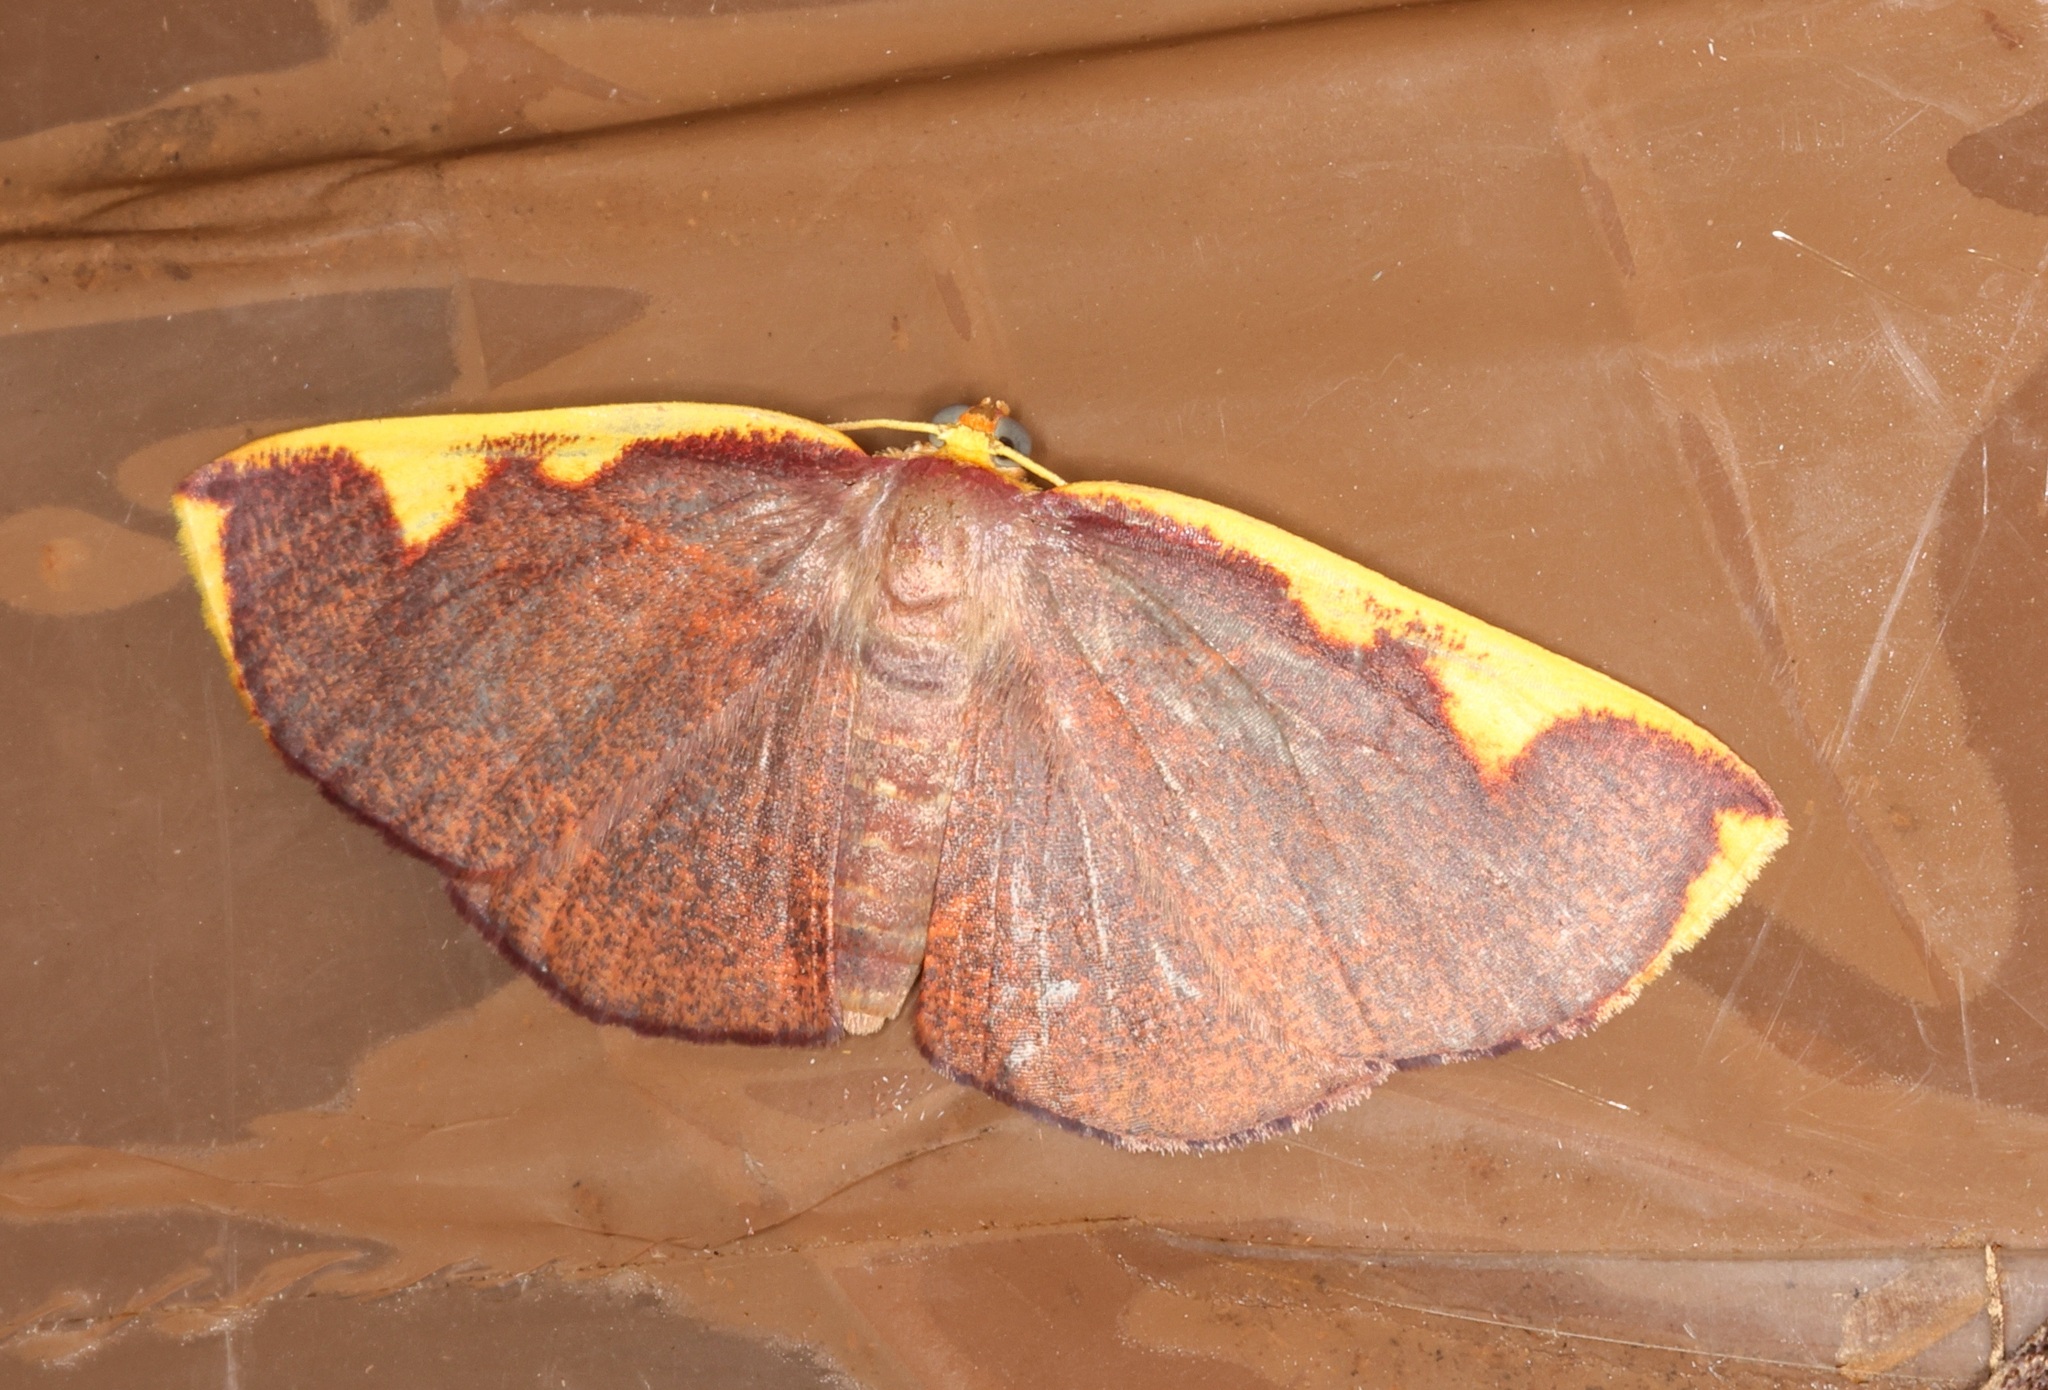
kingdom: Animalia
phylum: Arthropoda
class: Insecta
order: Lepidoptera
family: Geometridae
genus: Nothomiza
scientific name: Nothomiza flavicosta
